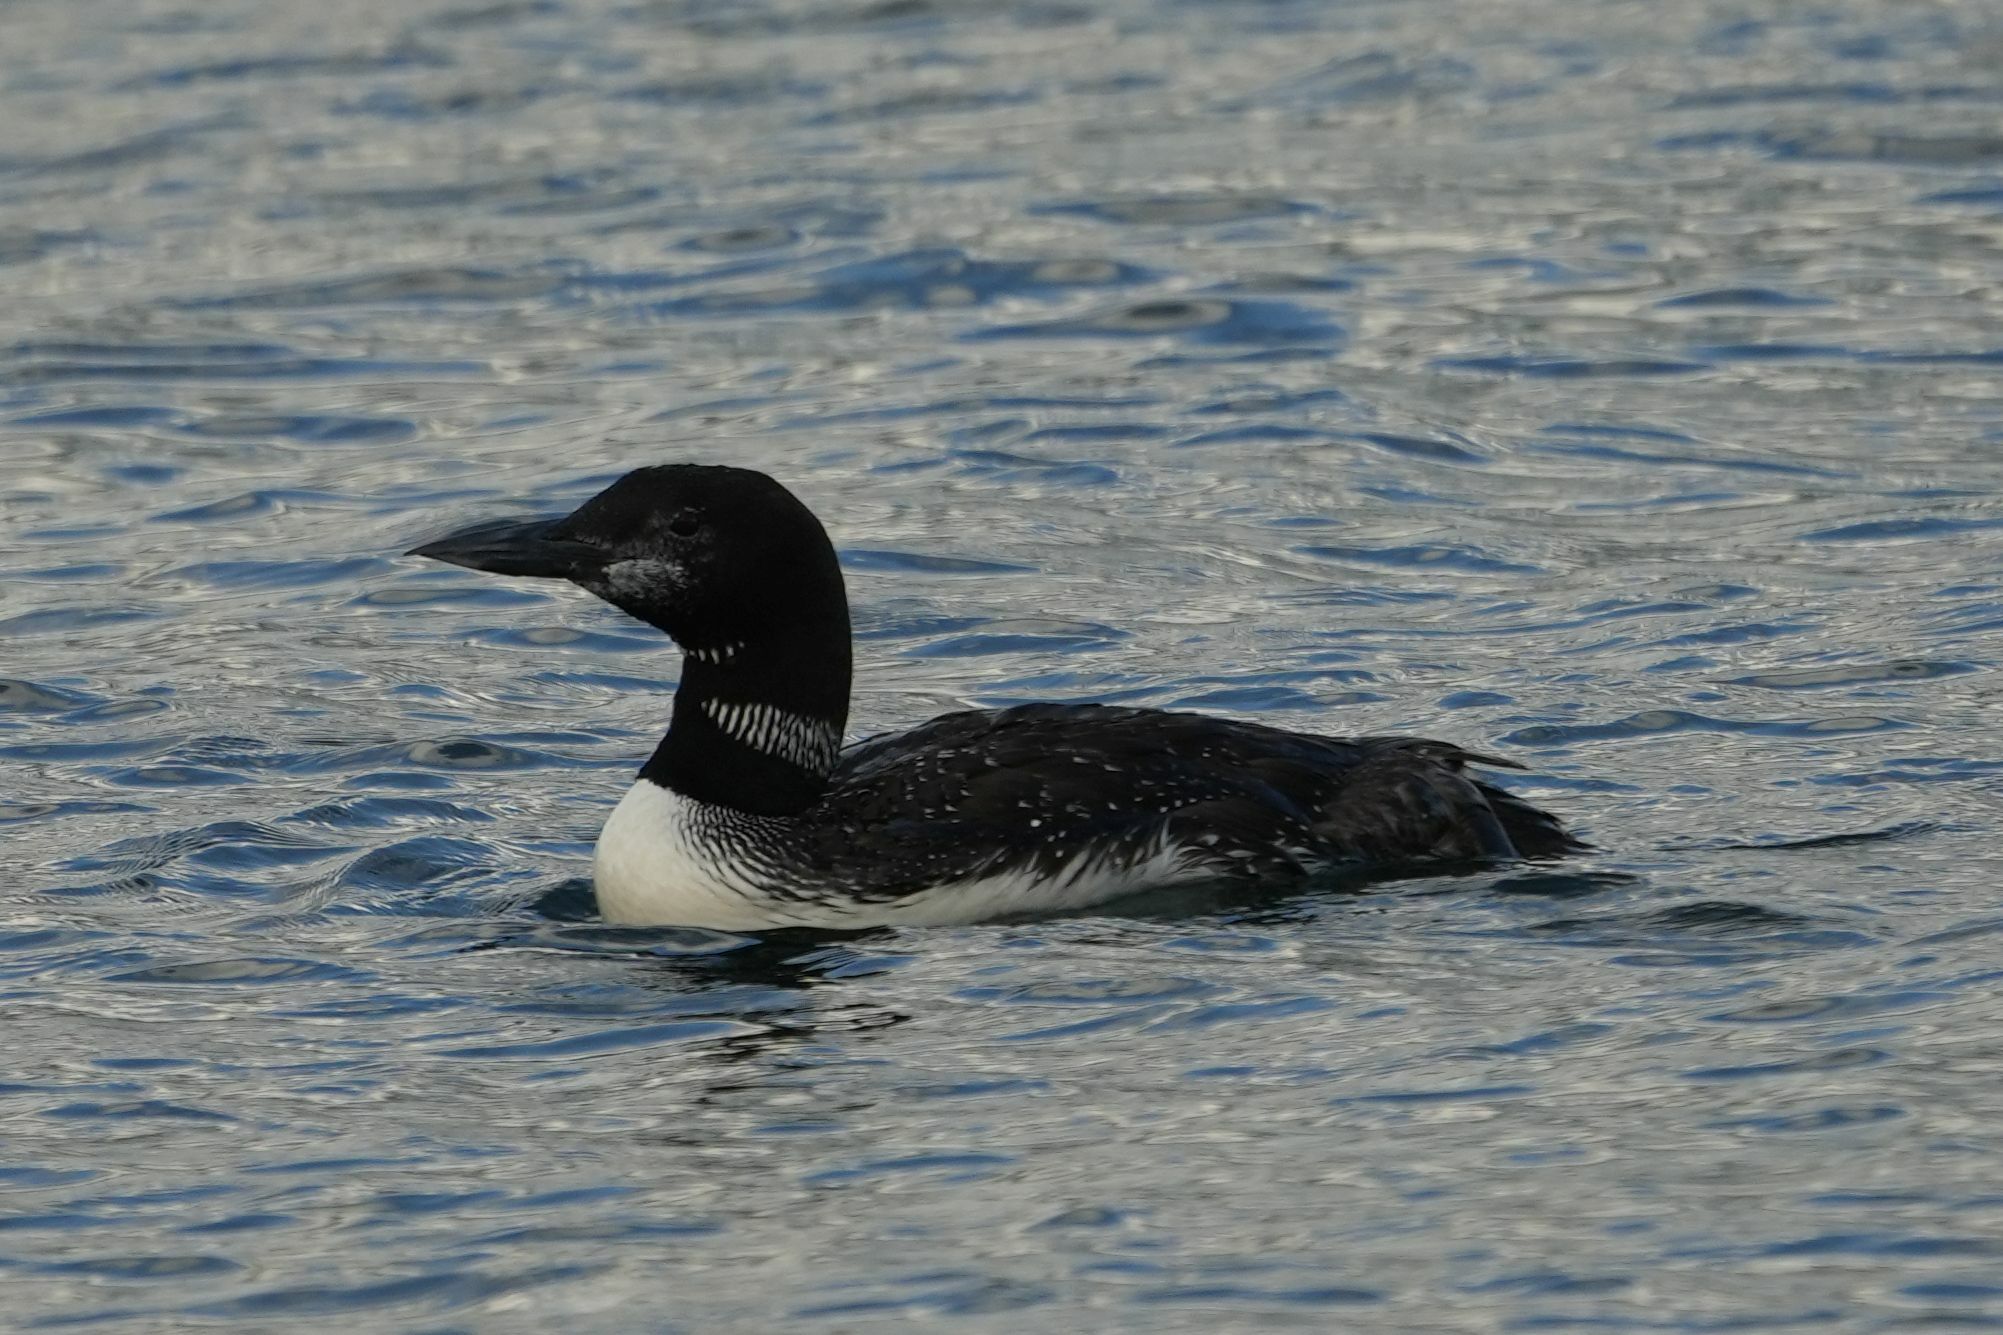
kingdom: Animalia
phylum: Chordata
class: Aves
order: Gaviiformes
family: Gaviidae
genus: Gavia
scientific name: Gavia immer
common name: Common loon
